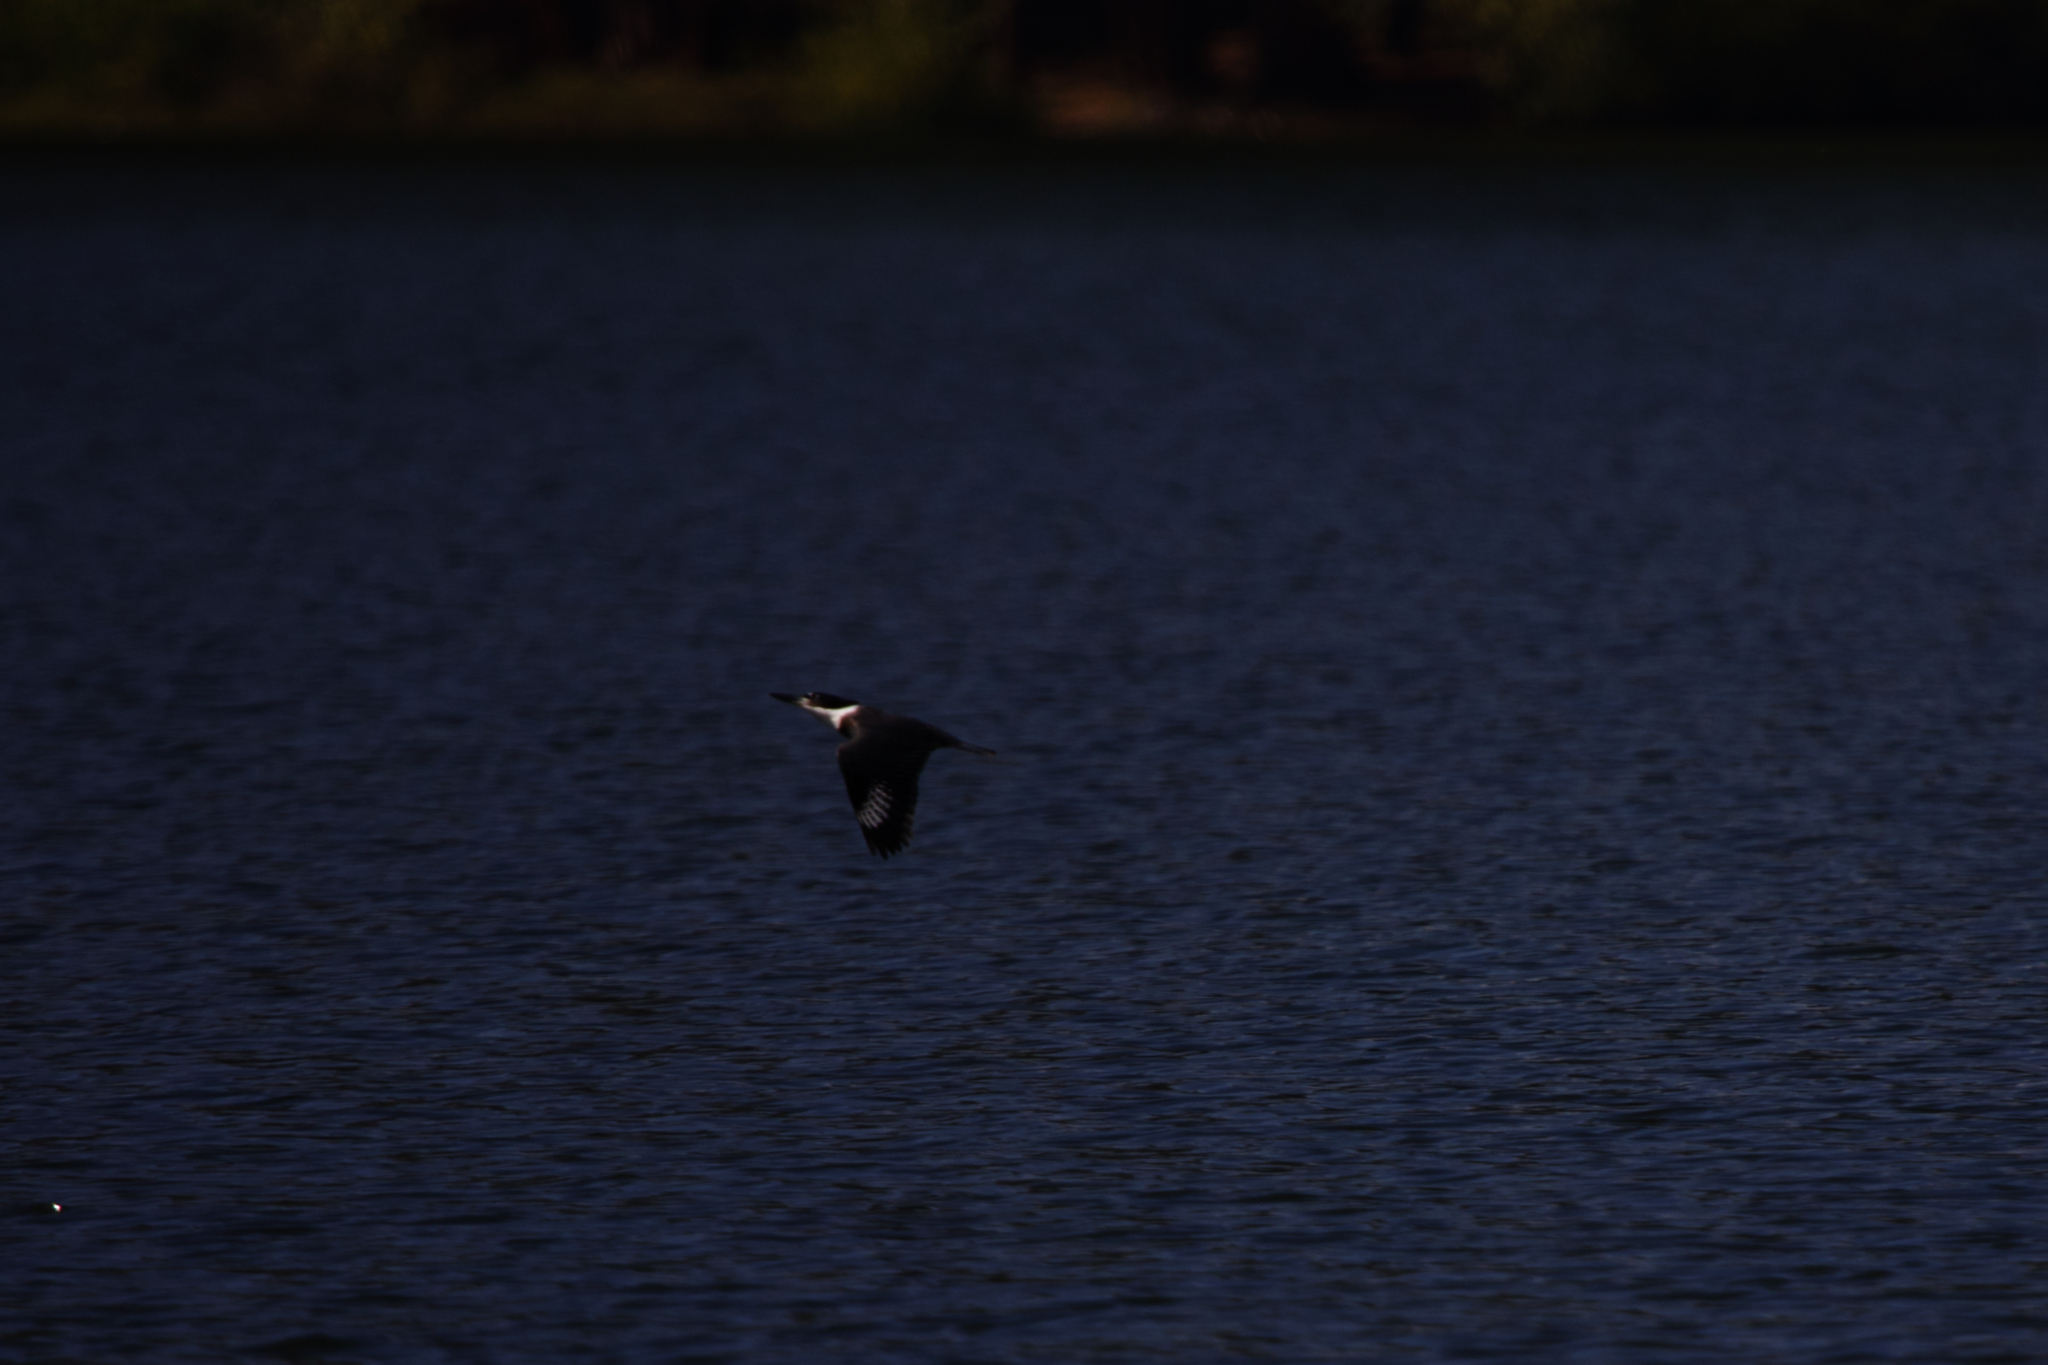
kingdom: Animalia
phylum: Chordata
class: Aves
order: Coraciiformes
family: Alcedinidae
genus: Megaceryle
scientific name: Megaceryle alcyon
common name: Belted kingfisher
